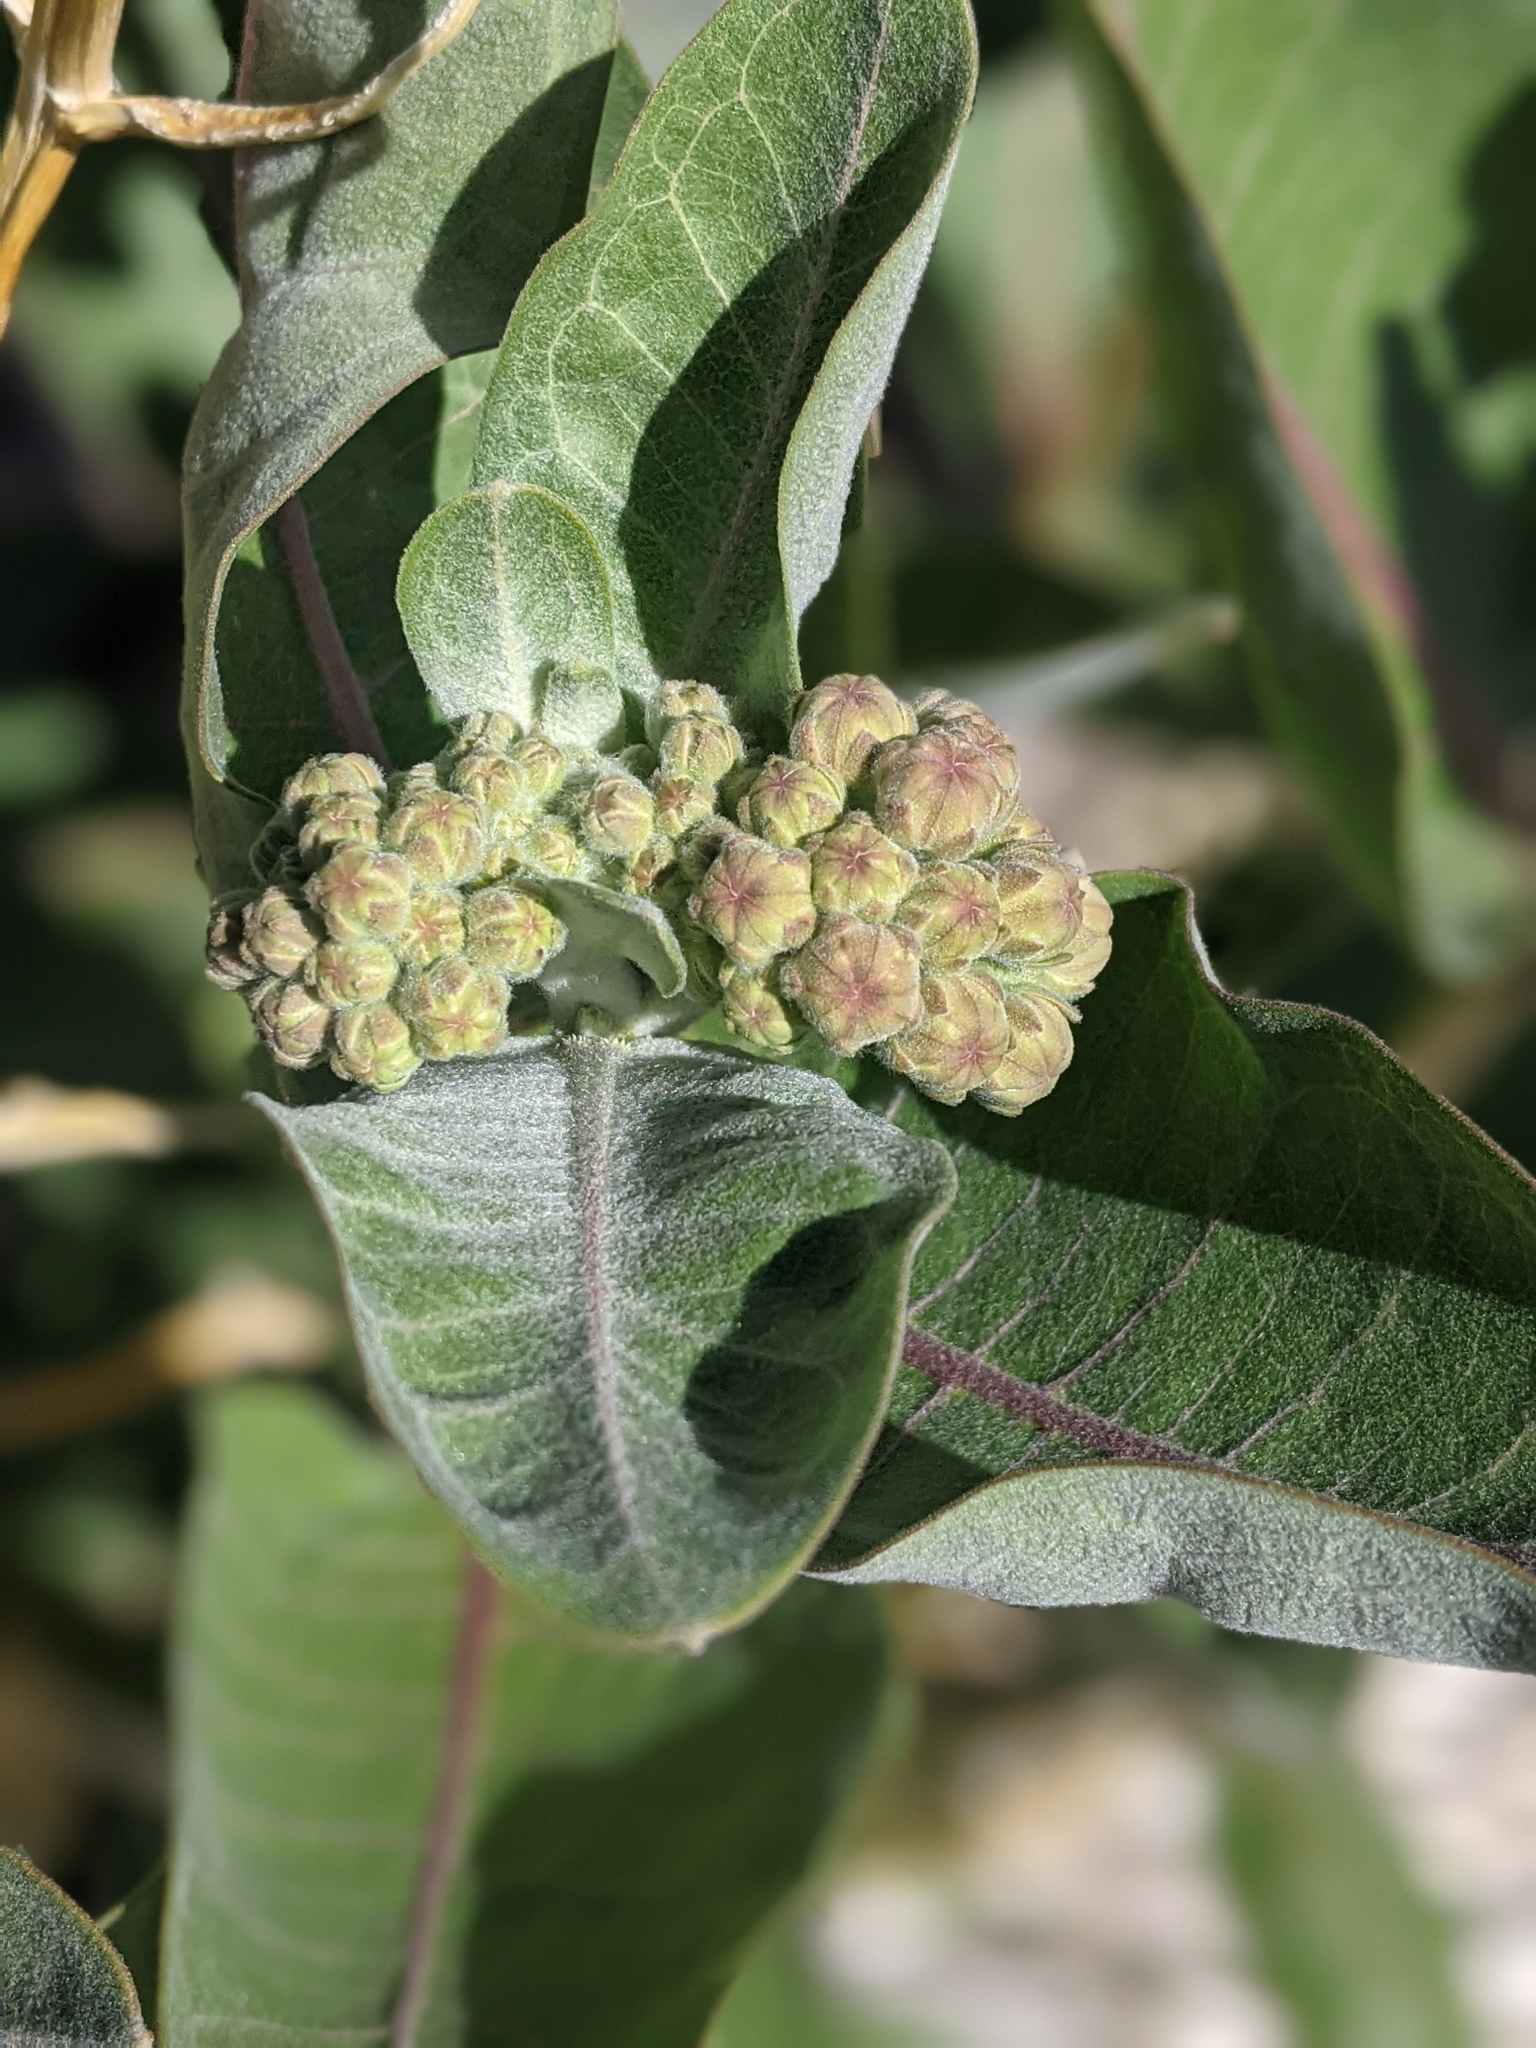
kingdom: Plantae
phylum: Tracheophyta
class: Magnoliopsida
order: Gentianales
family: Apocynaceae
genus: Asclepias
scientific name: Asclepias speciosa
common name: Showy milkweed
